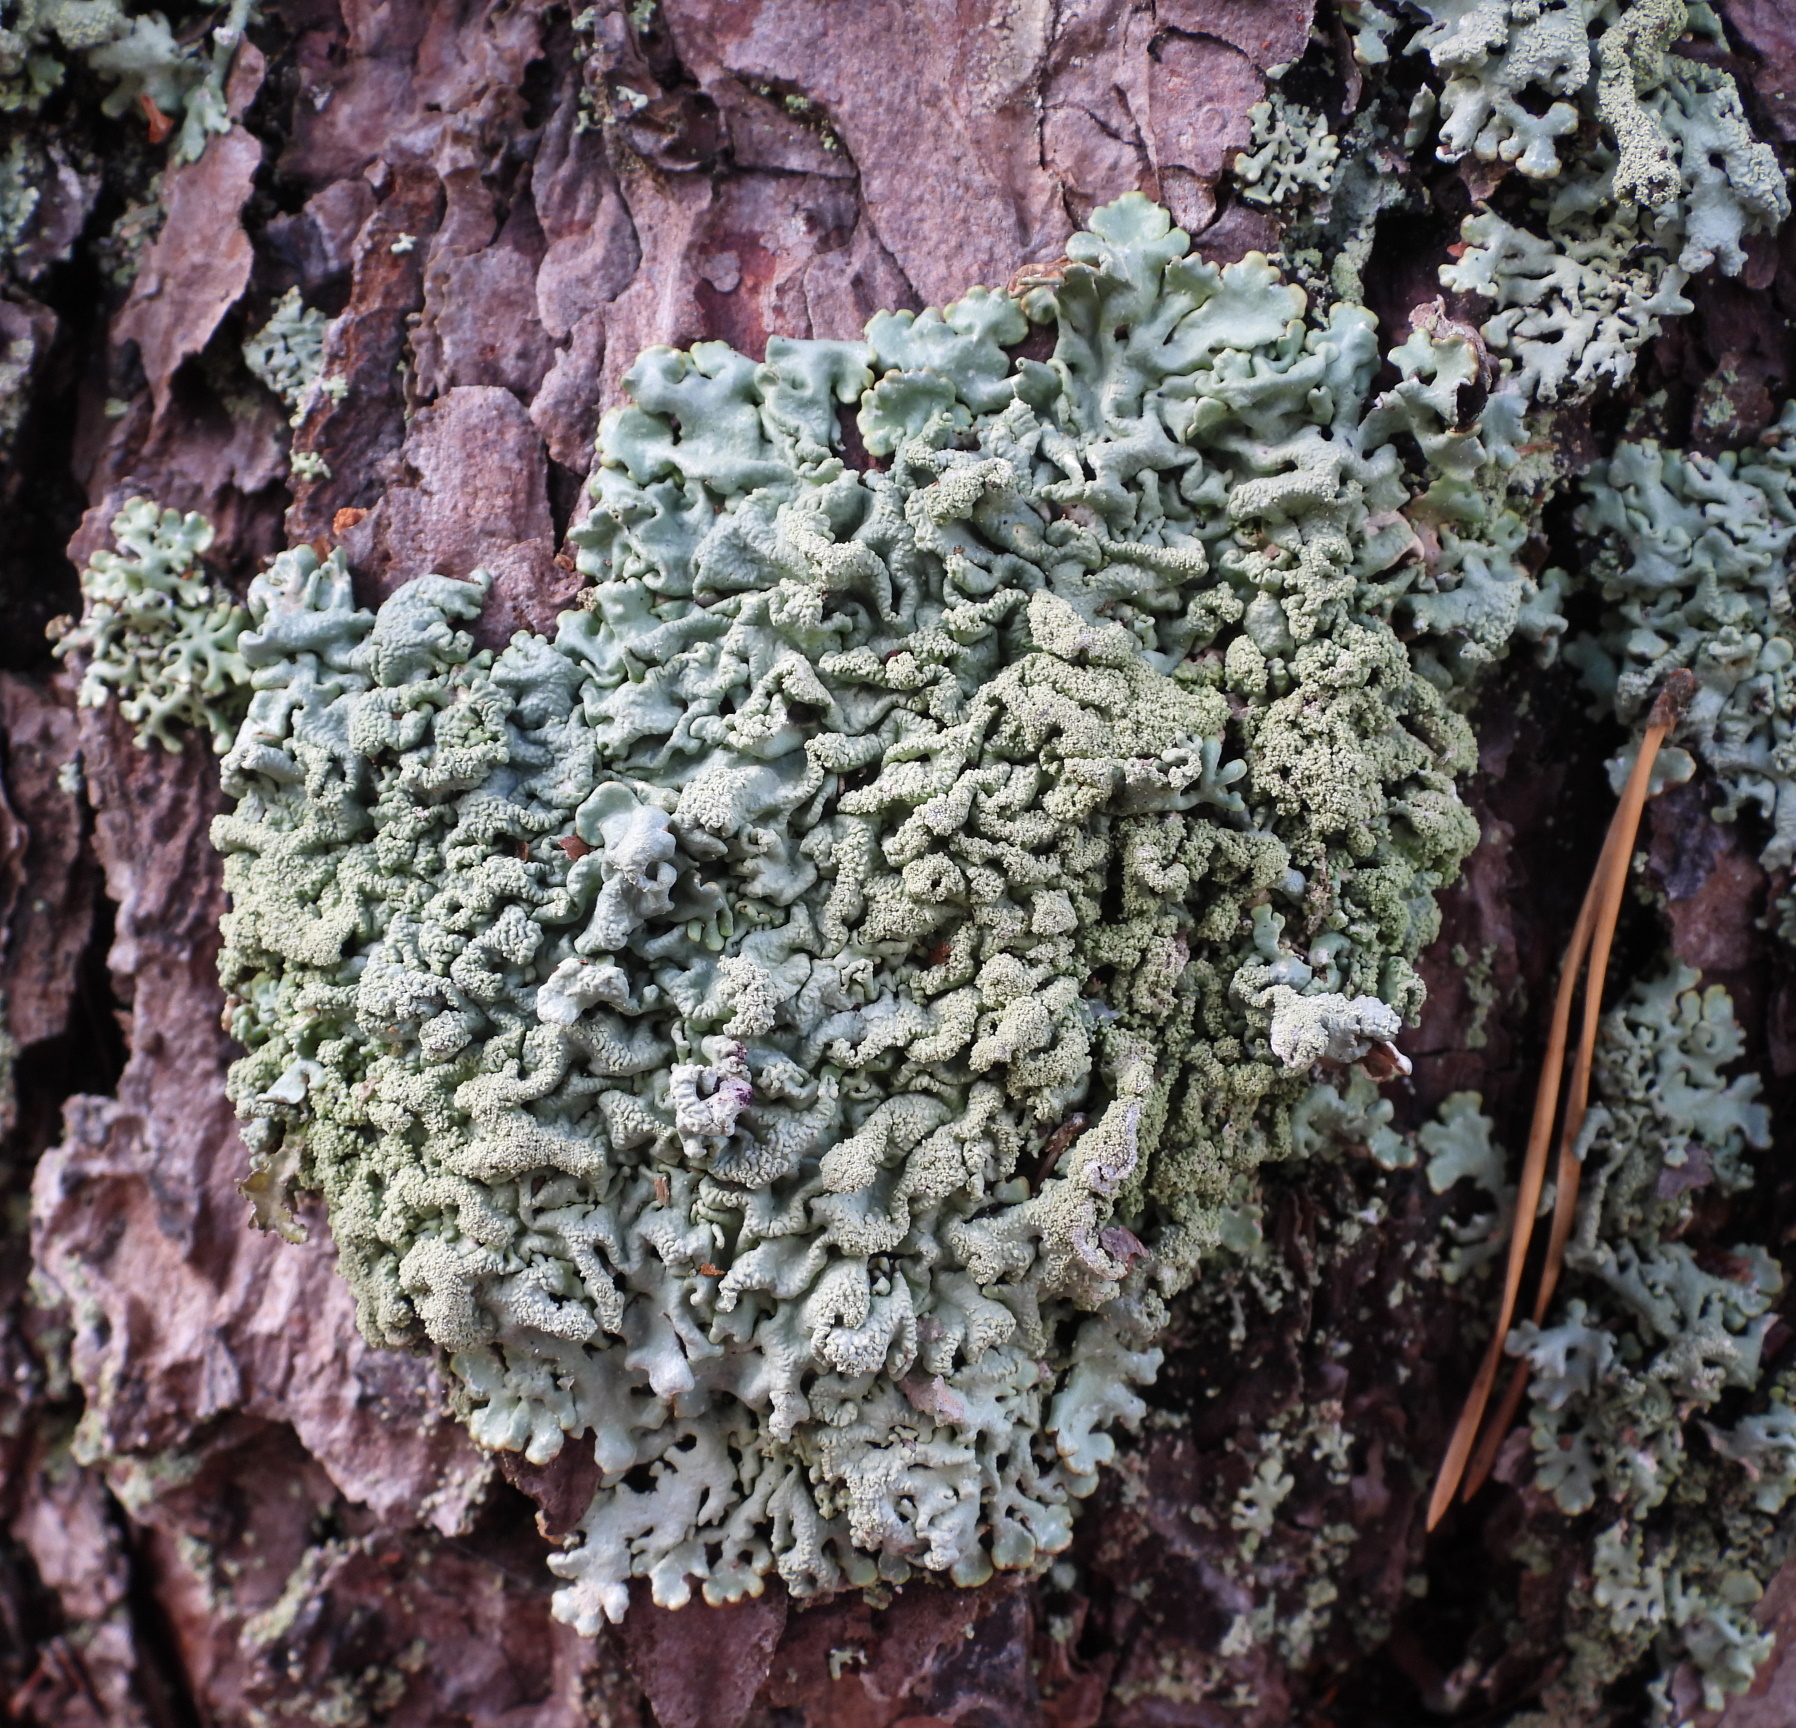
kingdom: Fungi
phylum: Ascomycota
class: Lecanoromycetes
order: Lecanorales
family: Parmeliaceae
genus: Hypogymnia
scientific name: Hypogymnia farinacea
